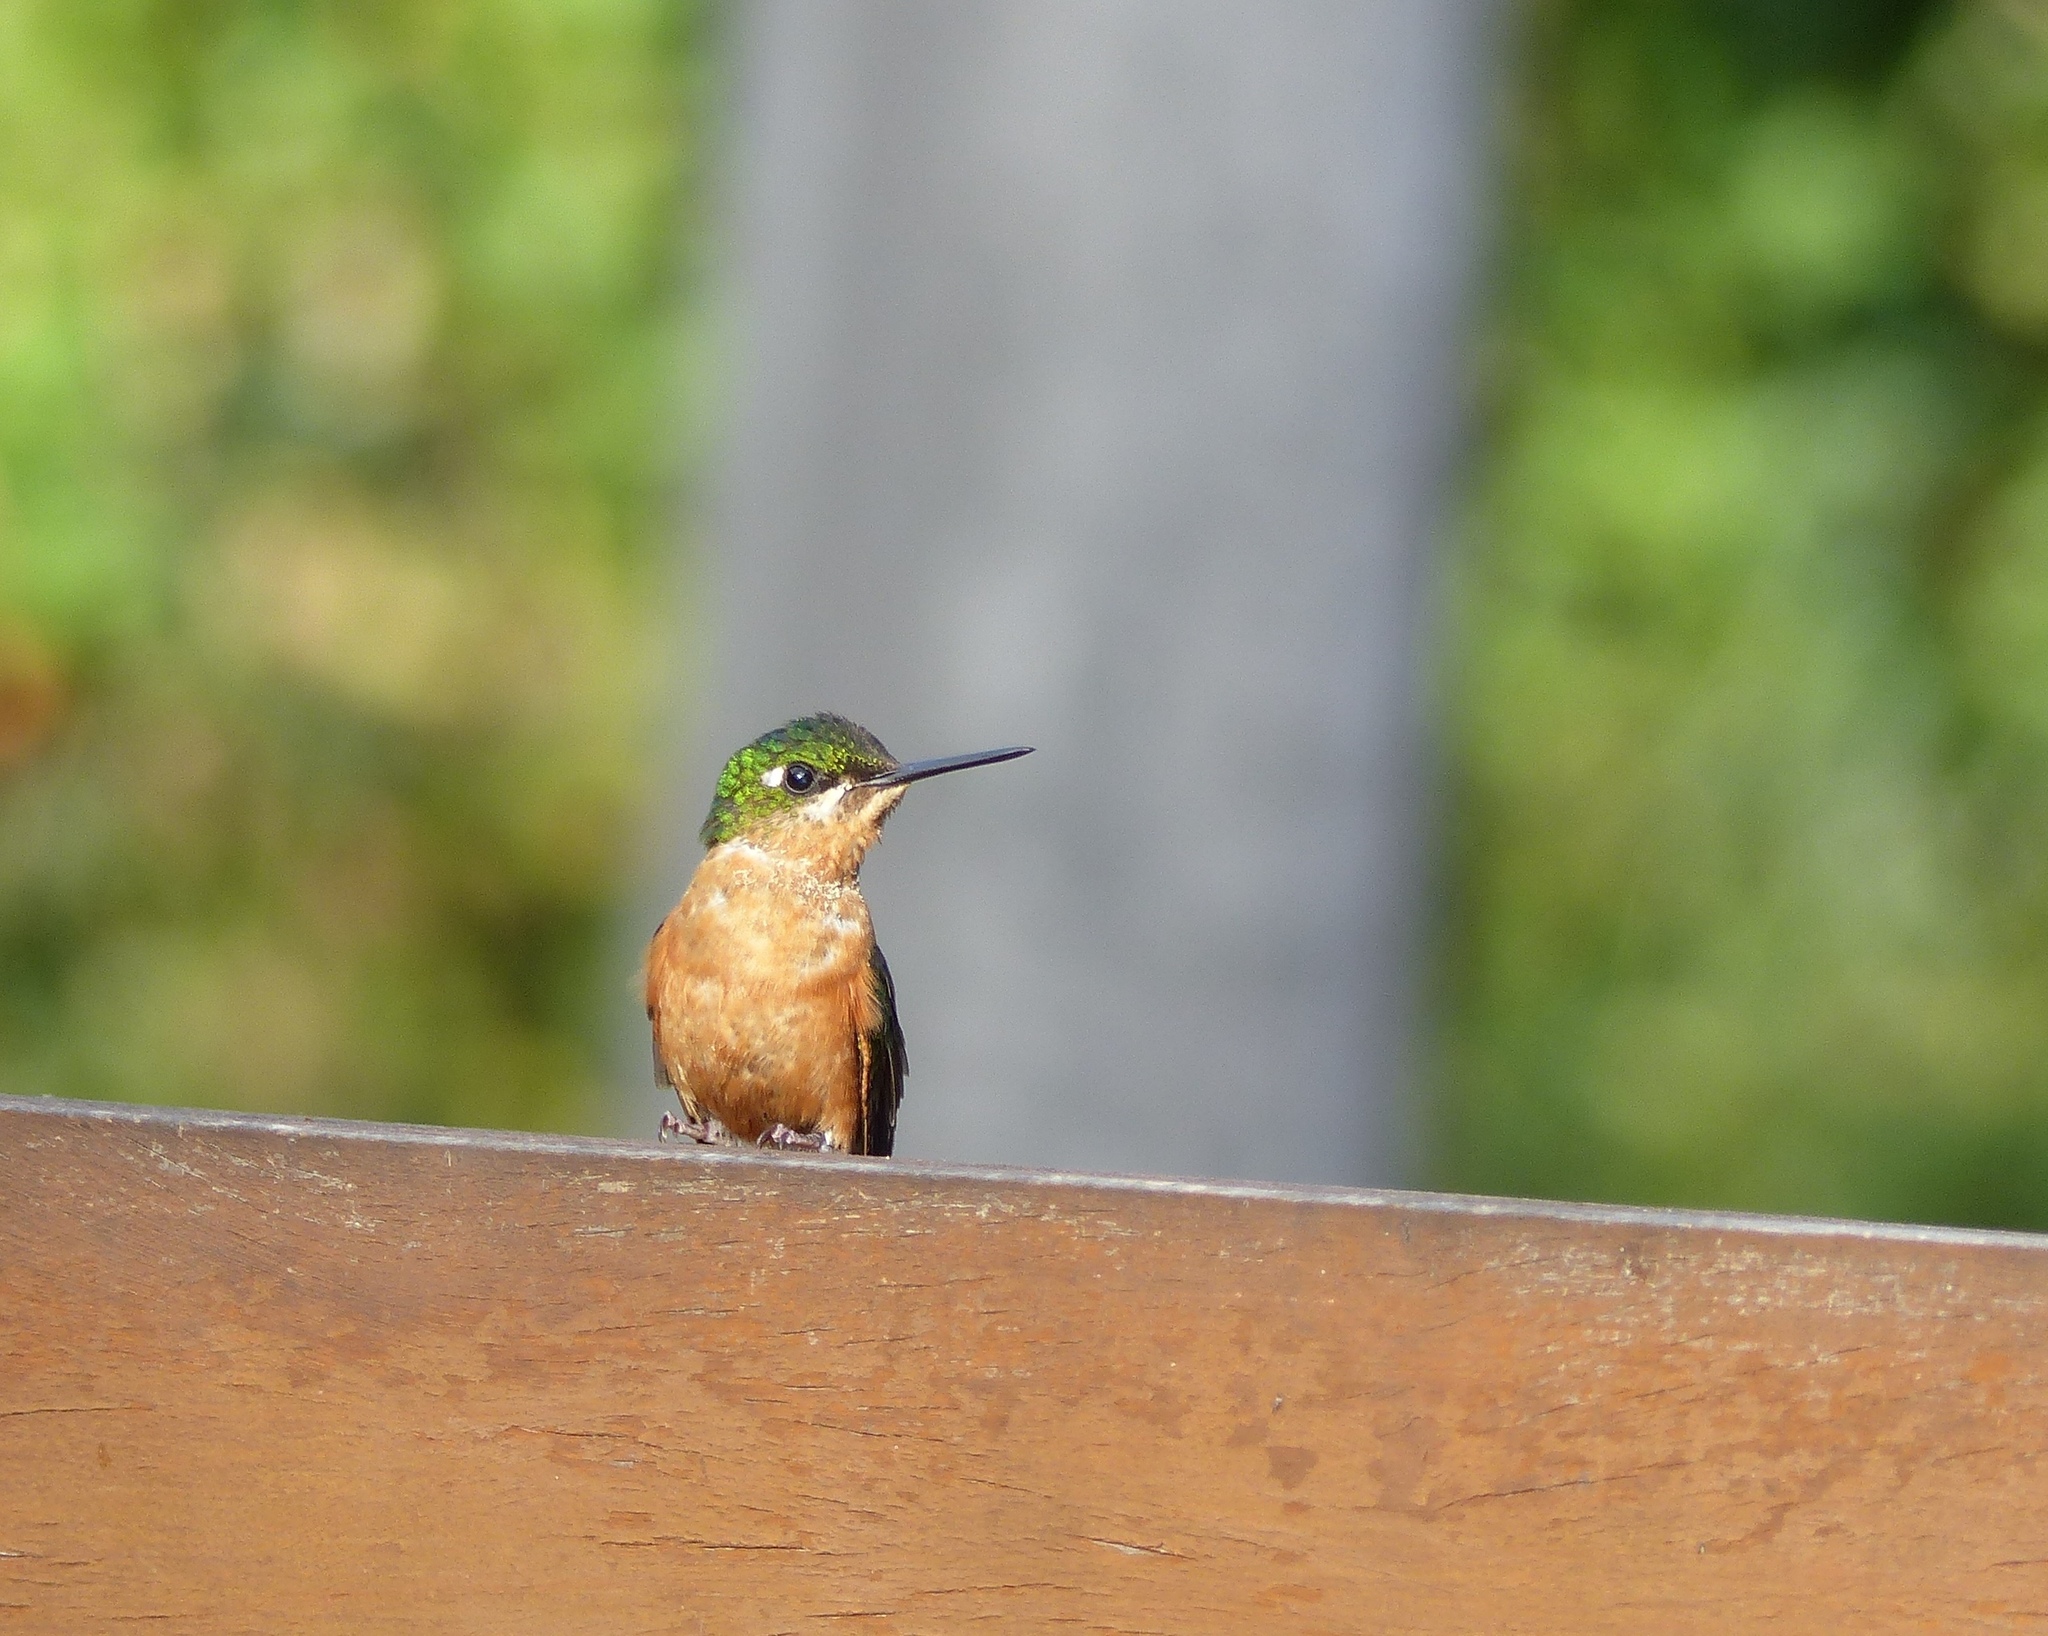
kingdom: Animalia
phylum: Chordata
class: Aves
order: Apodiformes
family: Trochilidae
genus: Clytolaema
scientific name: Clytolaema rubricauda
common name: Brazilian ruby
